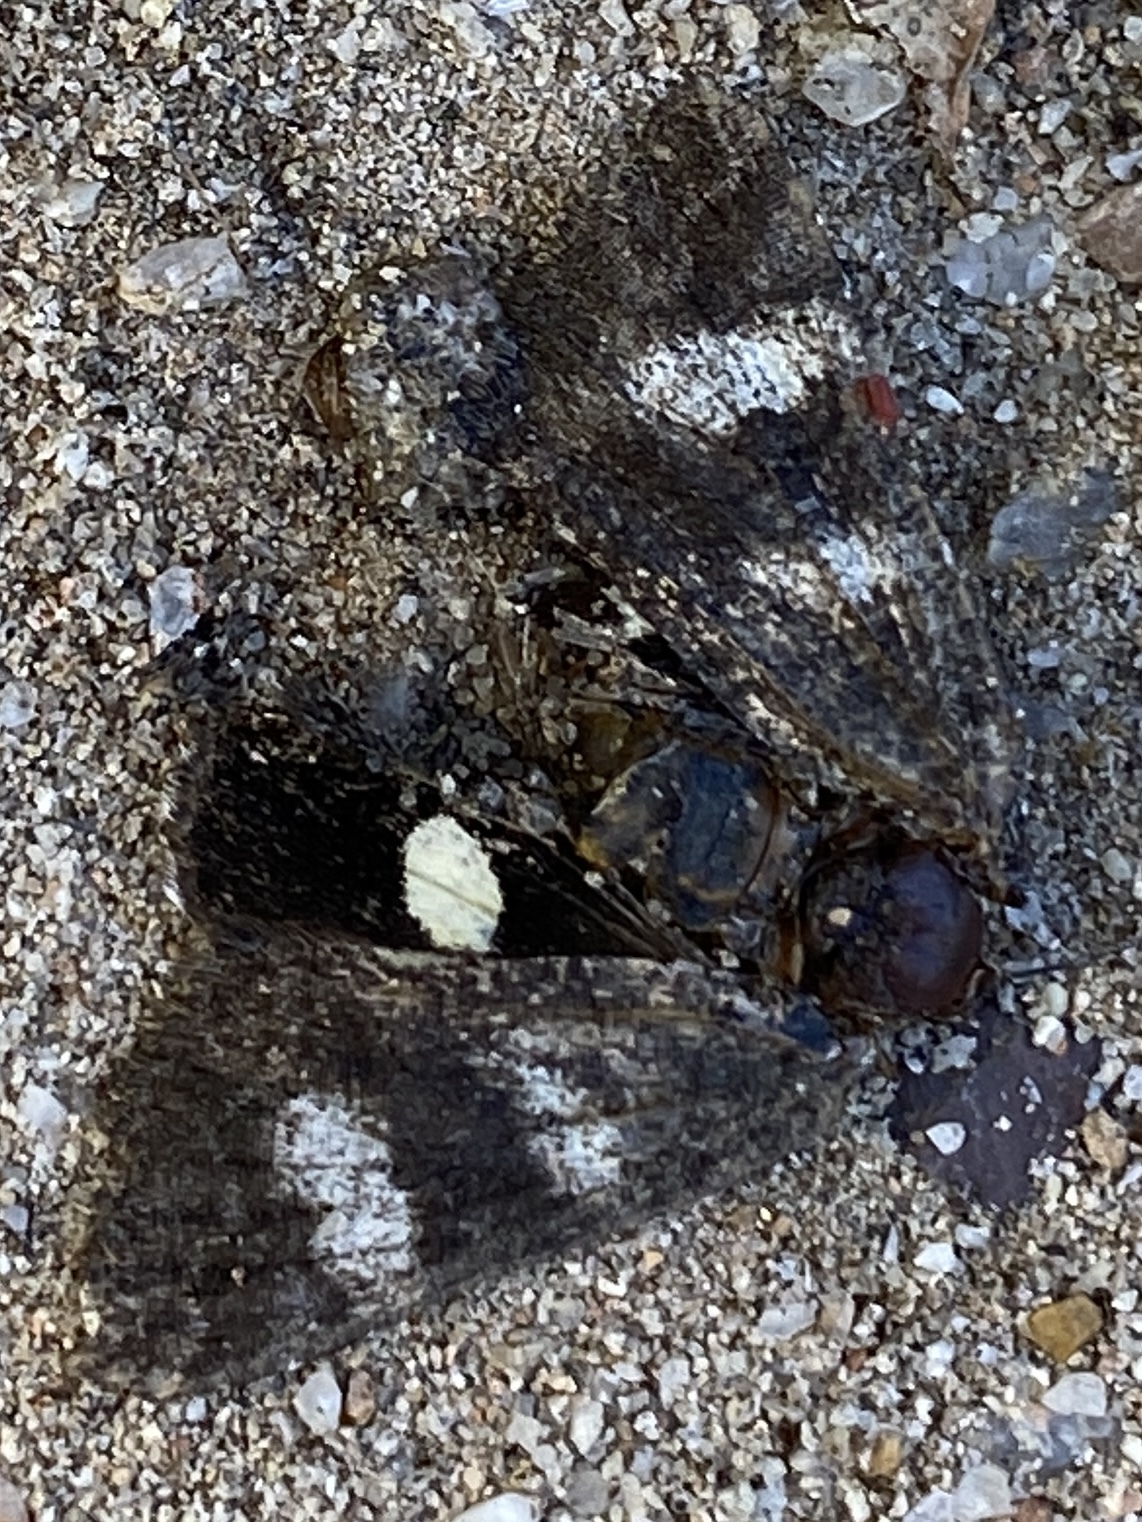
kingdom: Animalia
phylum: Arthropoda
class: Insecta
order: Lepidoptera
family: Erebidae
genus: Litocala
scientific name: Litocala sexsignata
